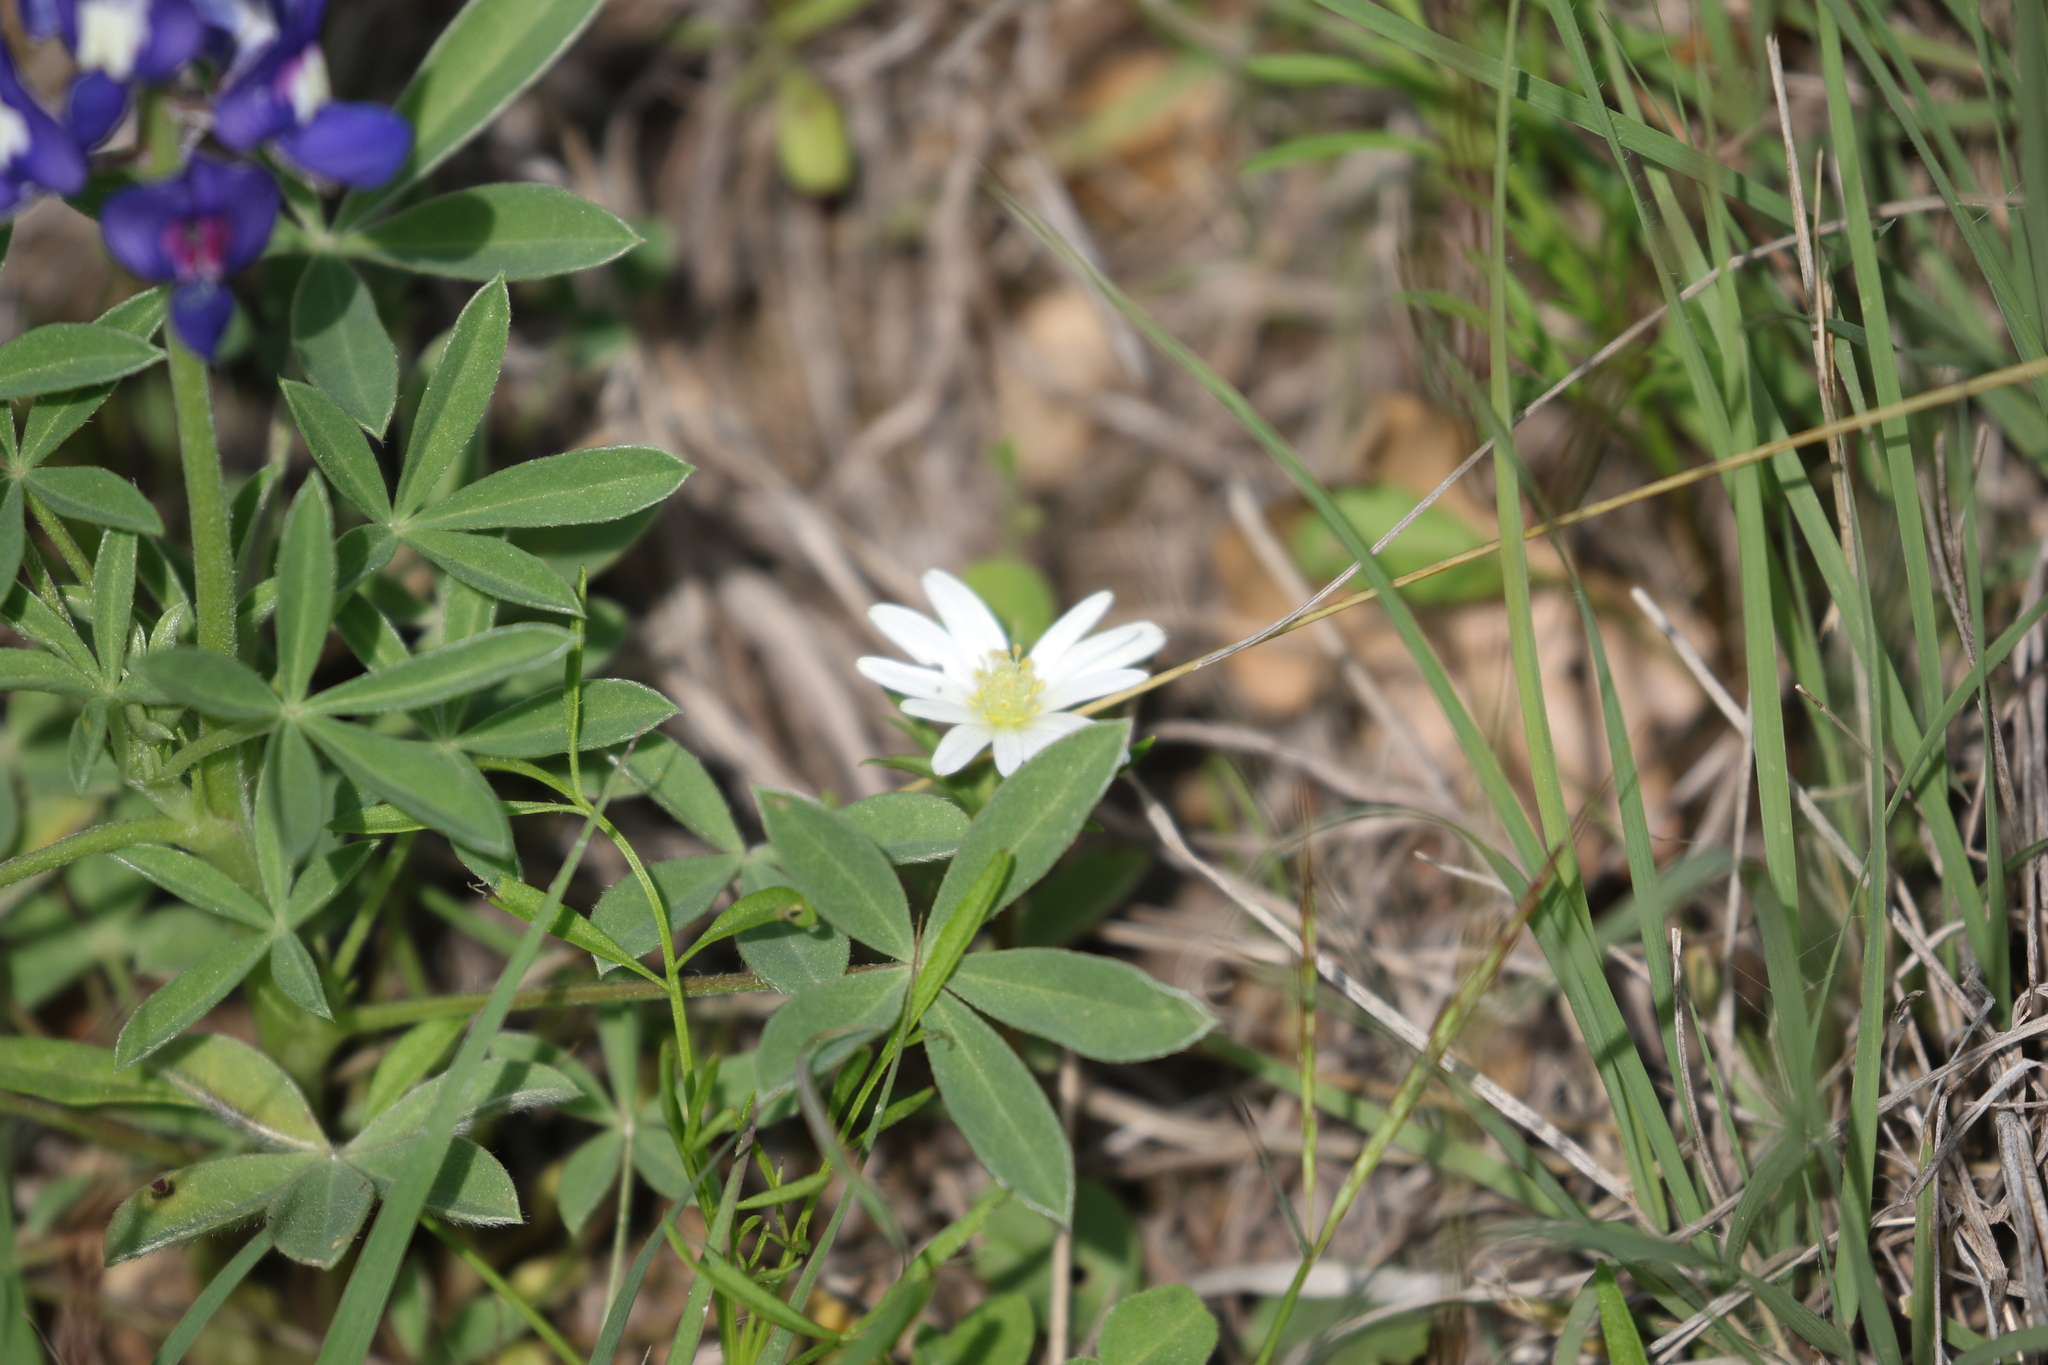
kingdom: Plantae
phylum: Tracheophyta
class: Magnoliopsida
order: Ranunculales
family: Ranunculaceae
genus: Anemone
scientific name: Anemone berlandieri
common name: Ten-petal anemone
